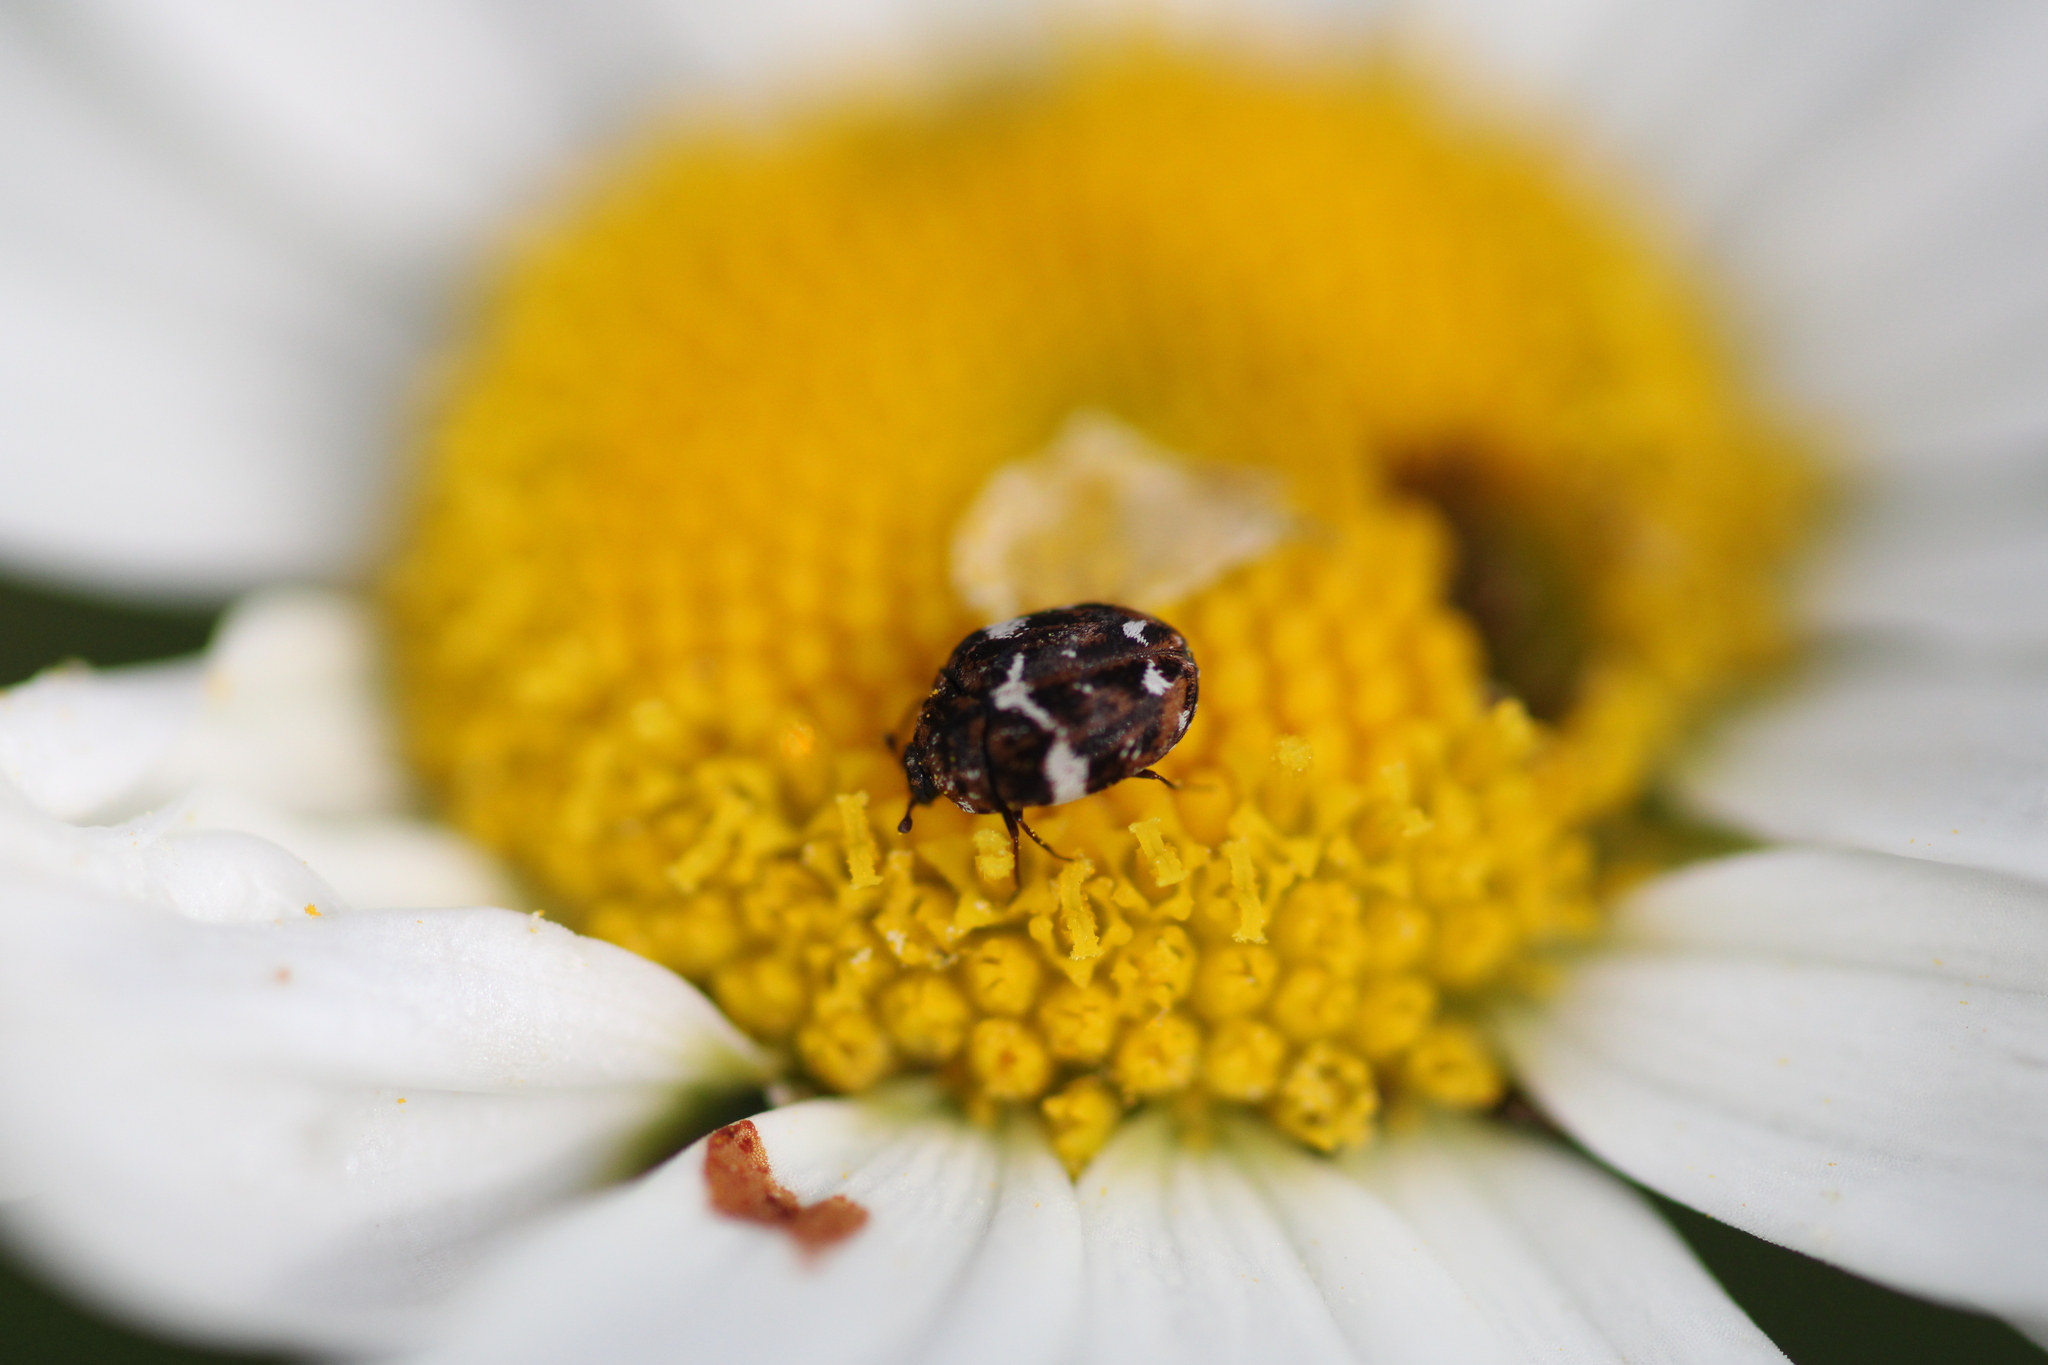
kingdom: Animalia
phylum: Arthropoda
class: Insecta
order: Coleoptera
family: Dermestidae
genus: Anthrenus
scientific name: Anthrenus angustefasciatus
